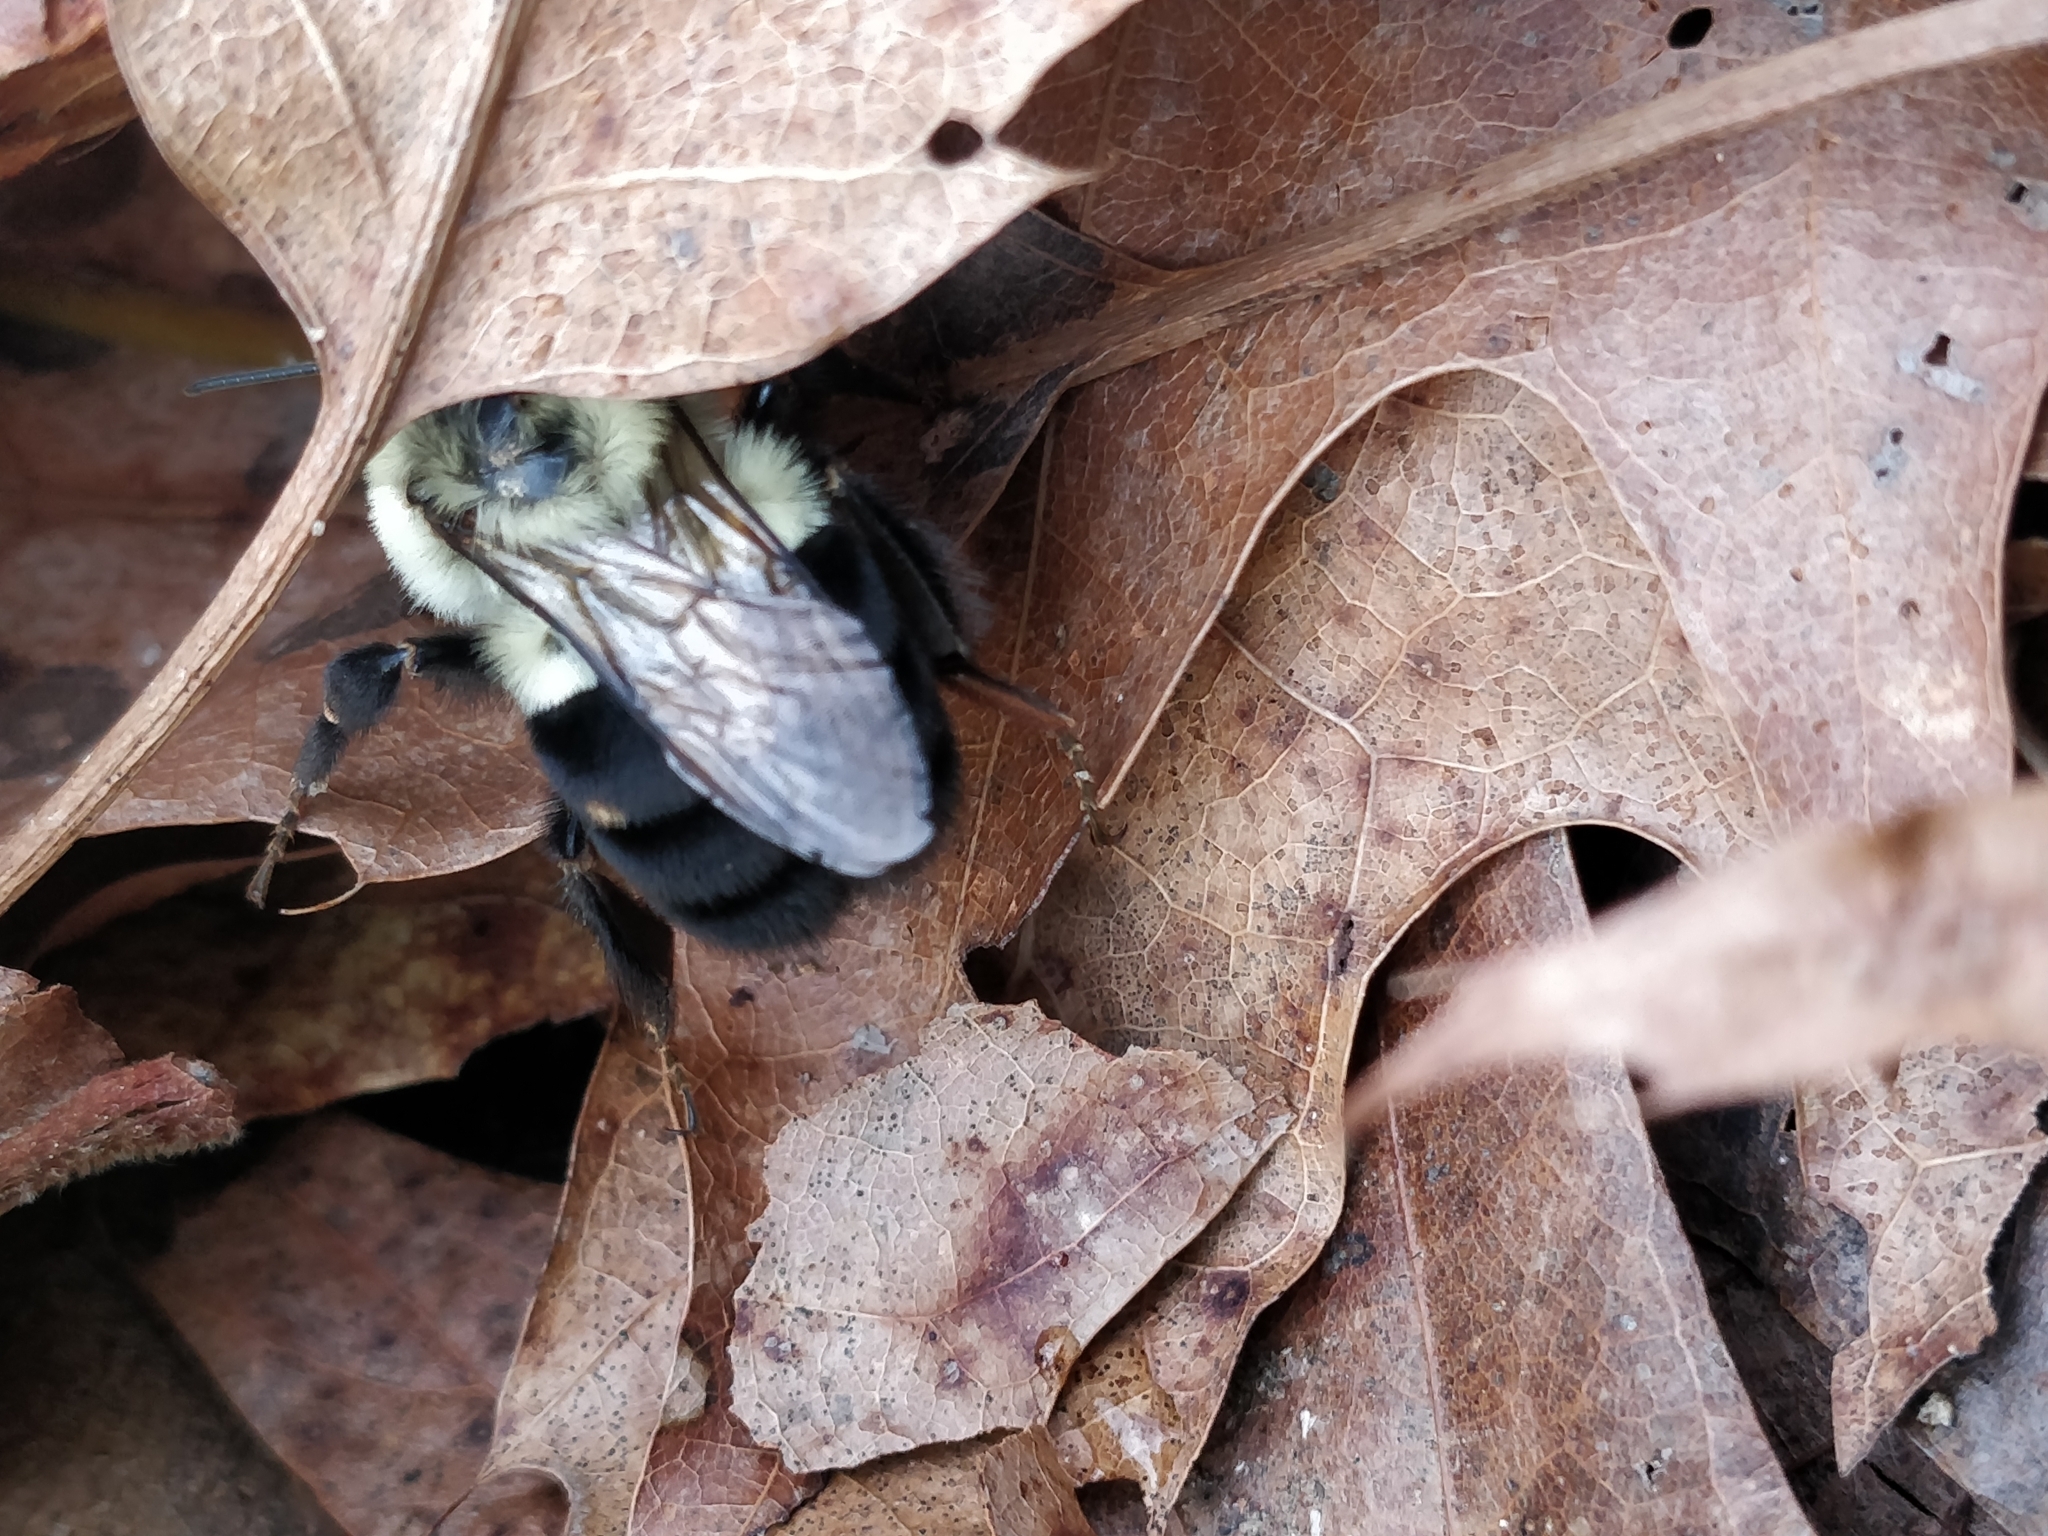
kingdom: Animalia
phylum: Arthropoda
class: Insecta
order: Hymenoptera
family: Apidae
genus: Bombus
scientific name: Bombus impatiens
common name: Common eastern bumble bee
